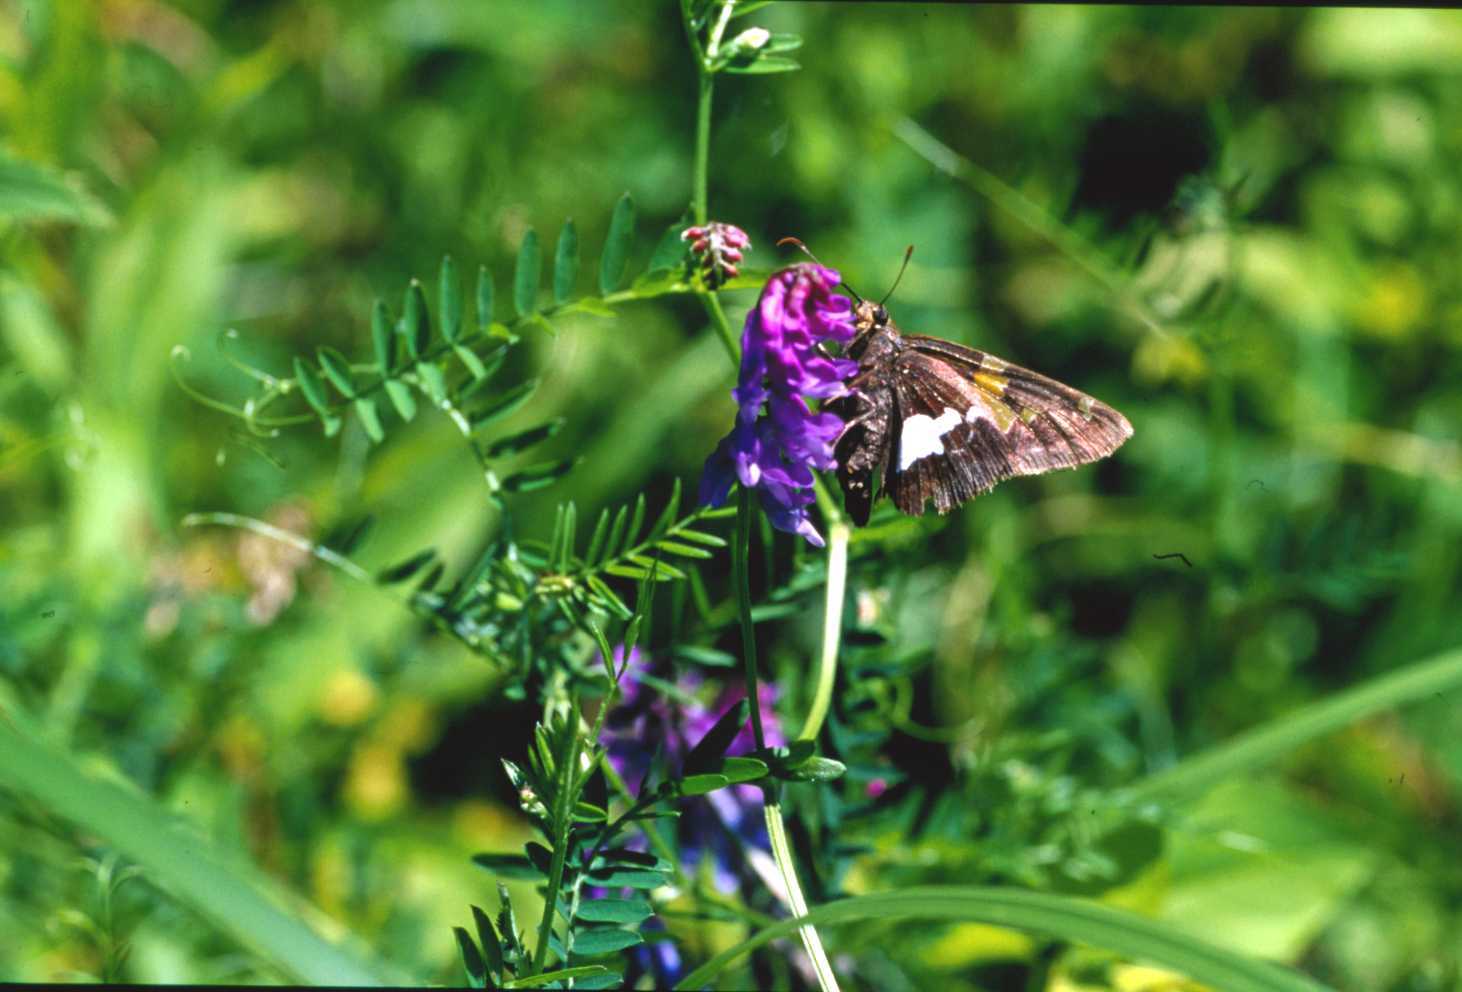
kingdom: Animalia
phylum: Arthropoda
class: Insecta
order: Lepidoptera
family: Hesperiidae
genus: Epargyreus
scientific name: Epargyreus clarus
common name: Silver-spotted skipper
